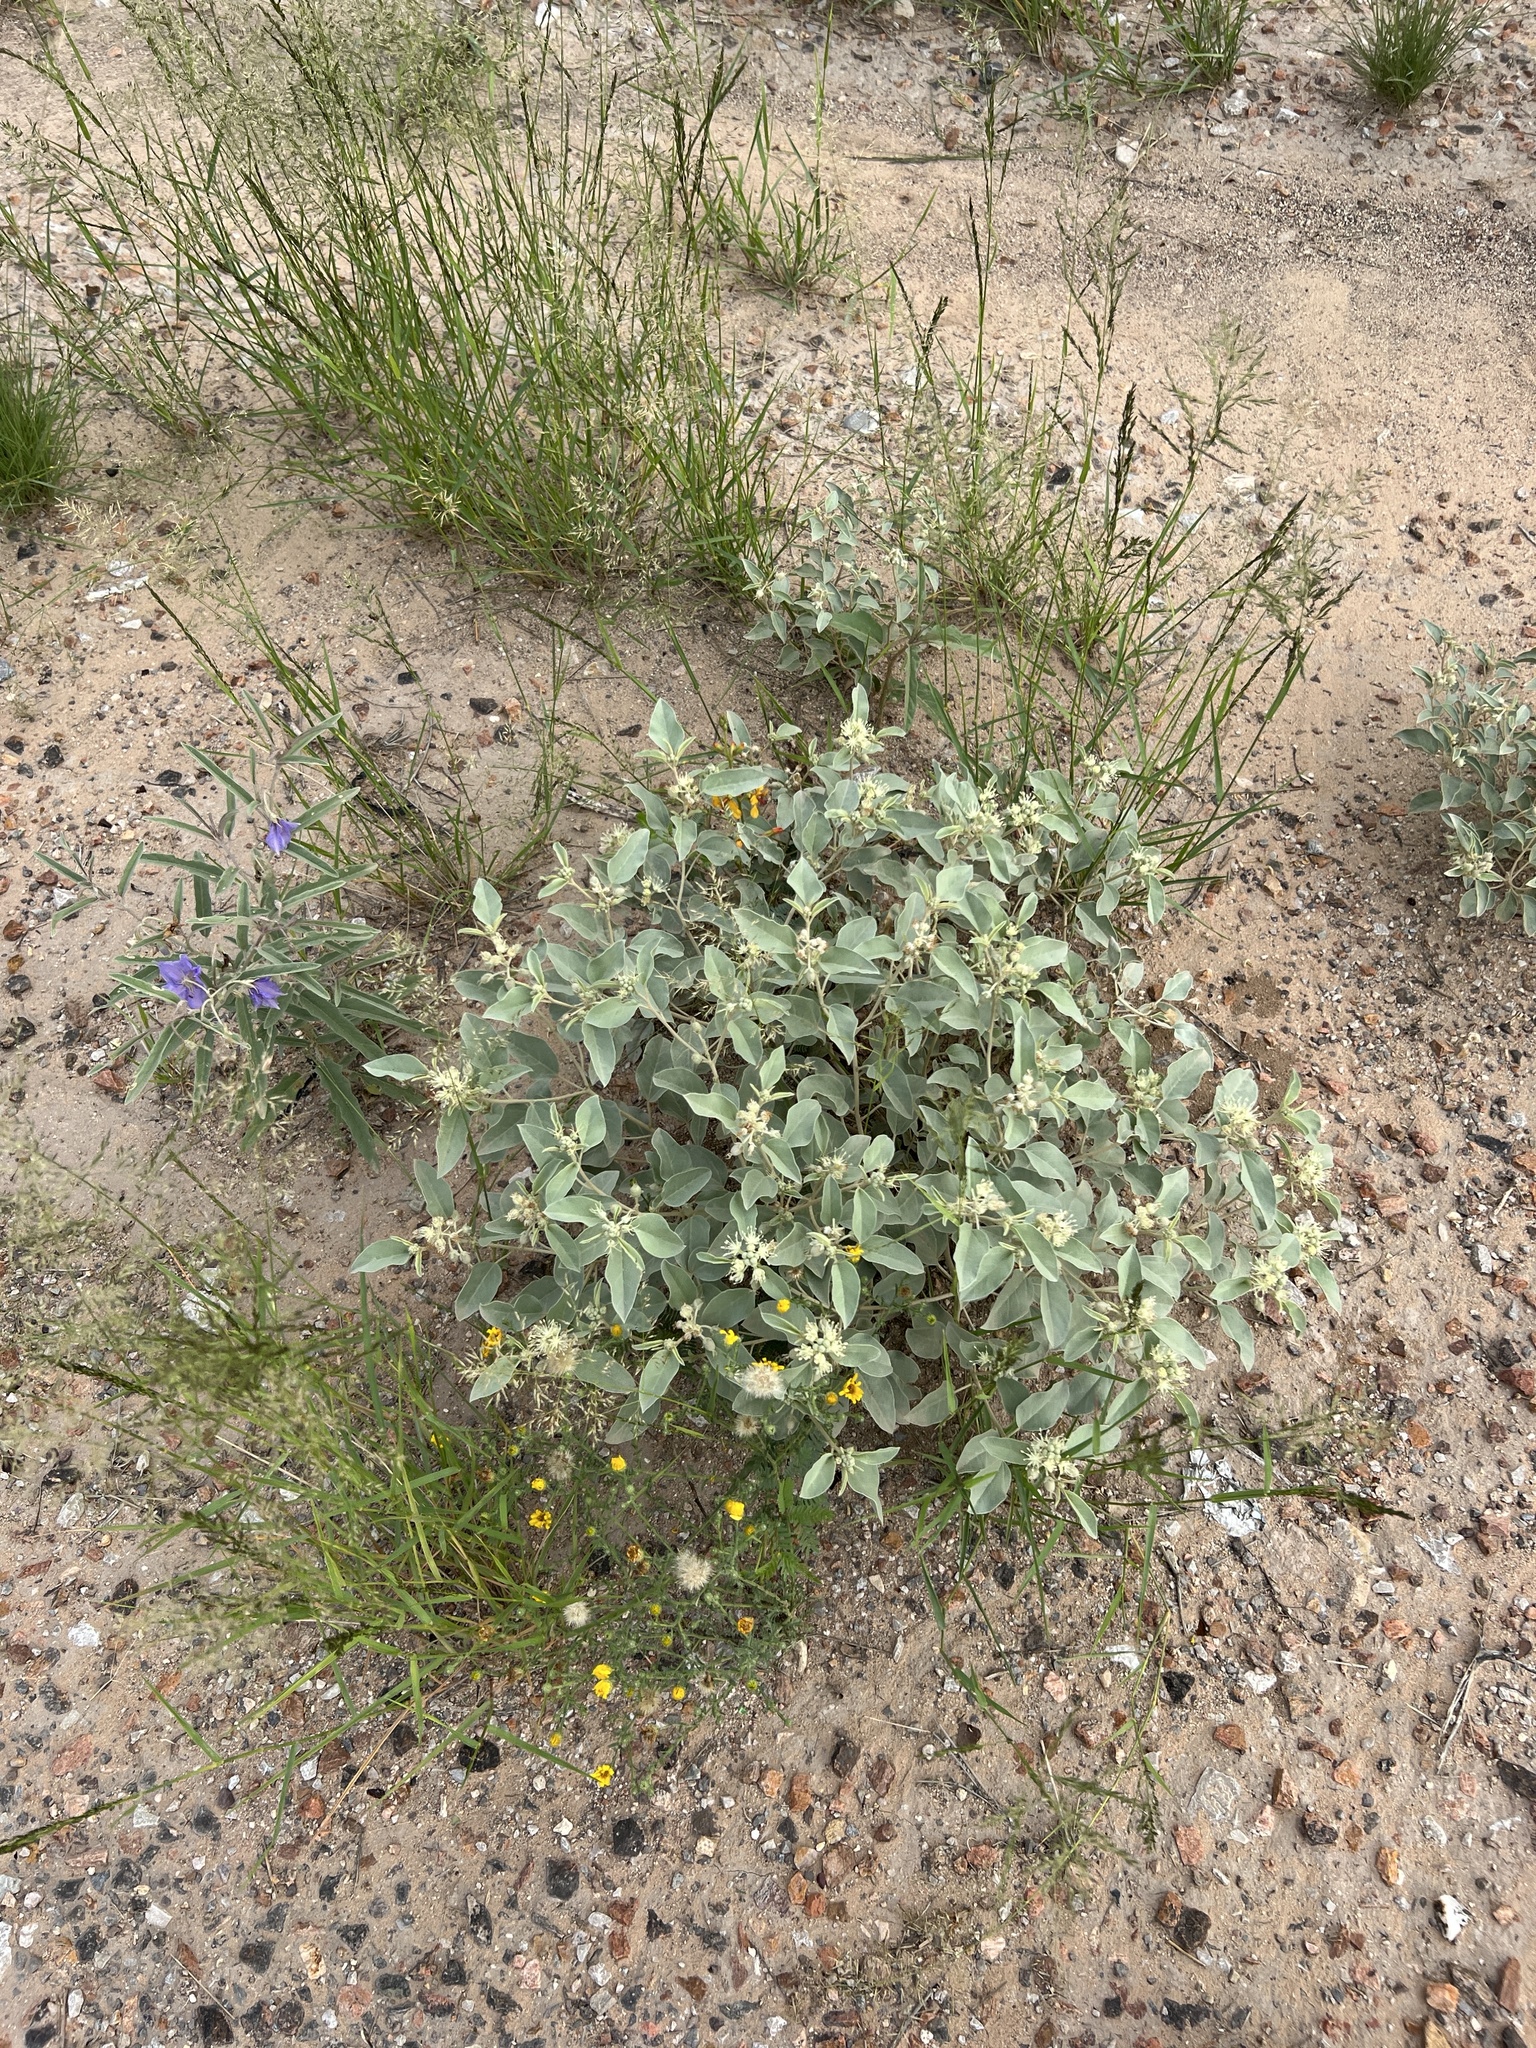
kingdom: Plantae
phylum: Tracheophyta
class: Magnoliopsida
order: Malpighiales
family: Euphorbiaceae
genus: Croton
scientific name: Croton pottsii
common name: Leatherweed
